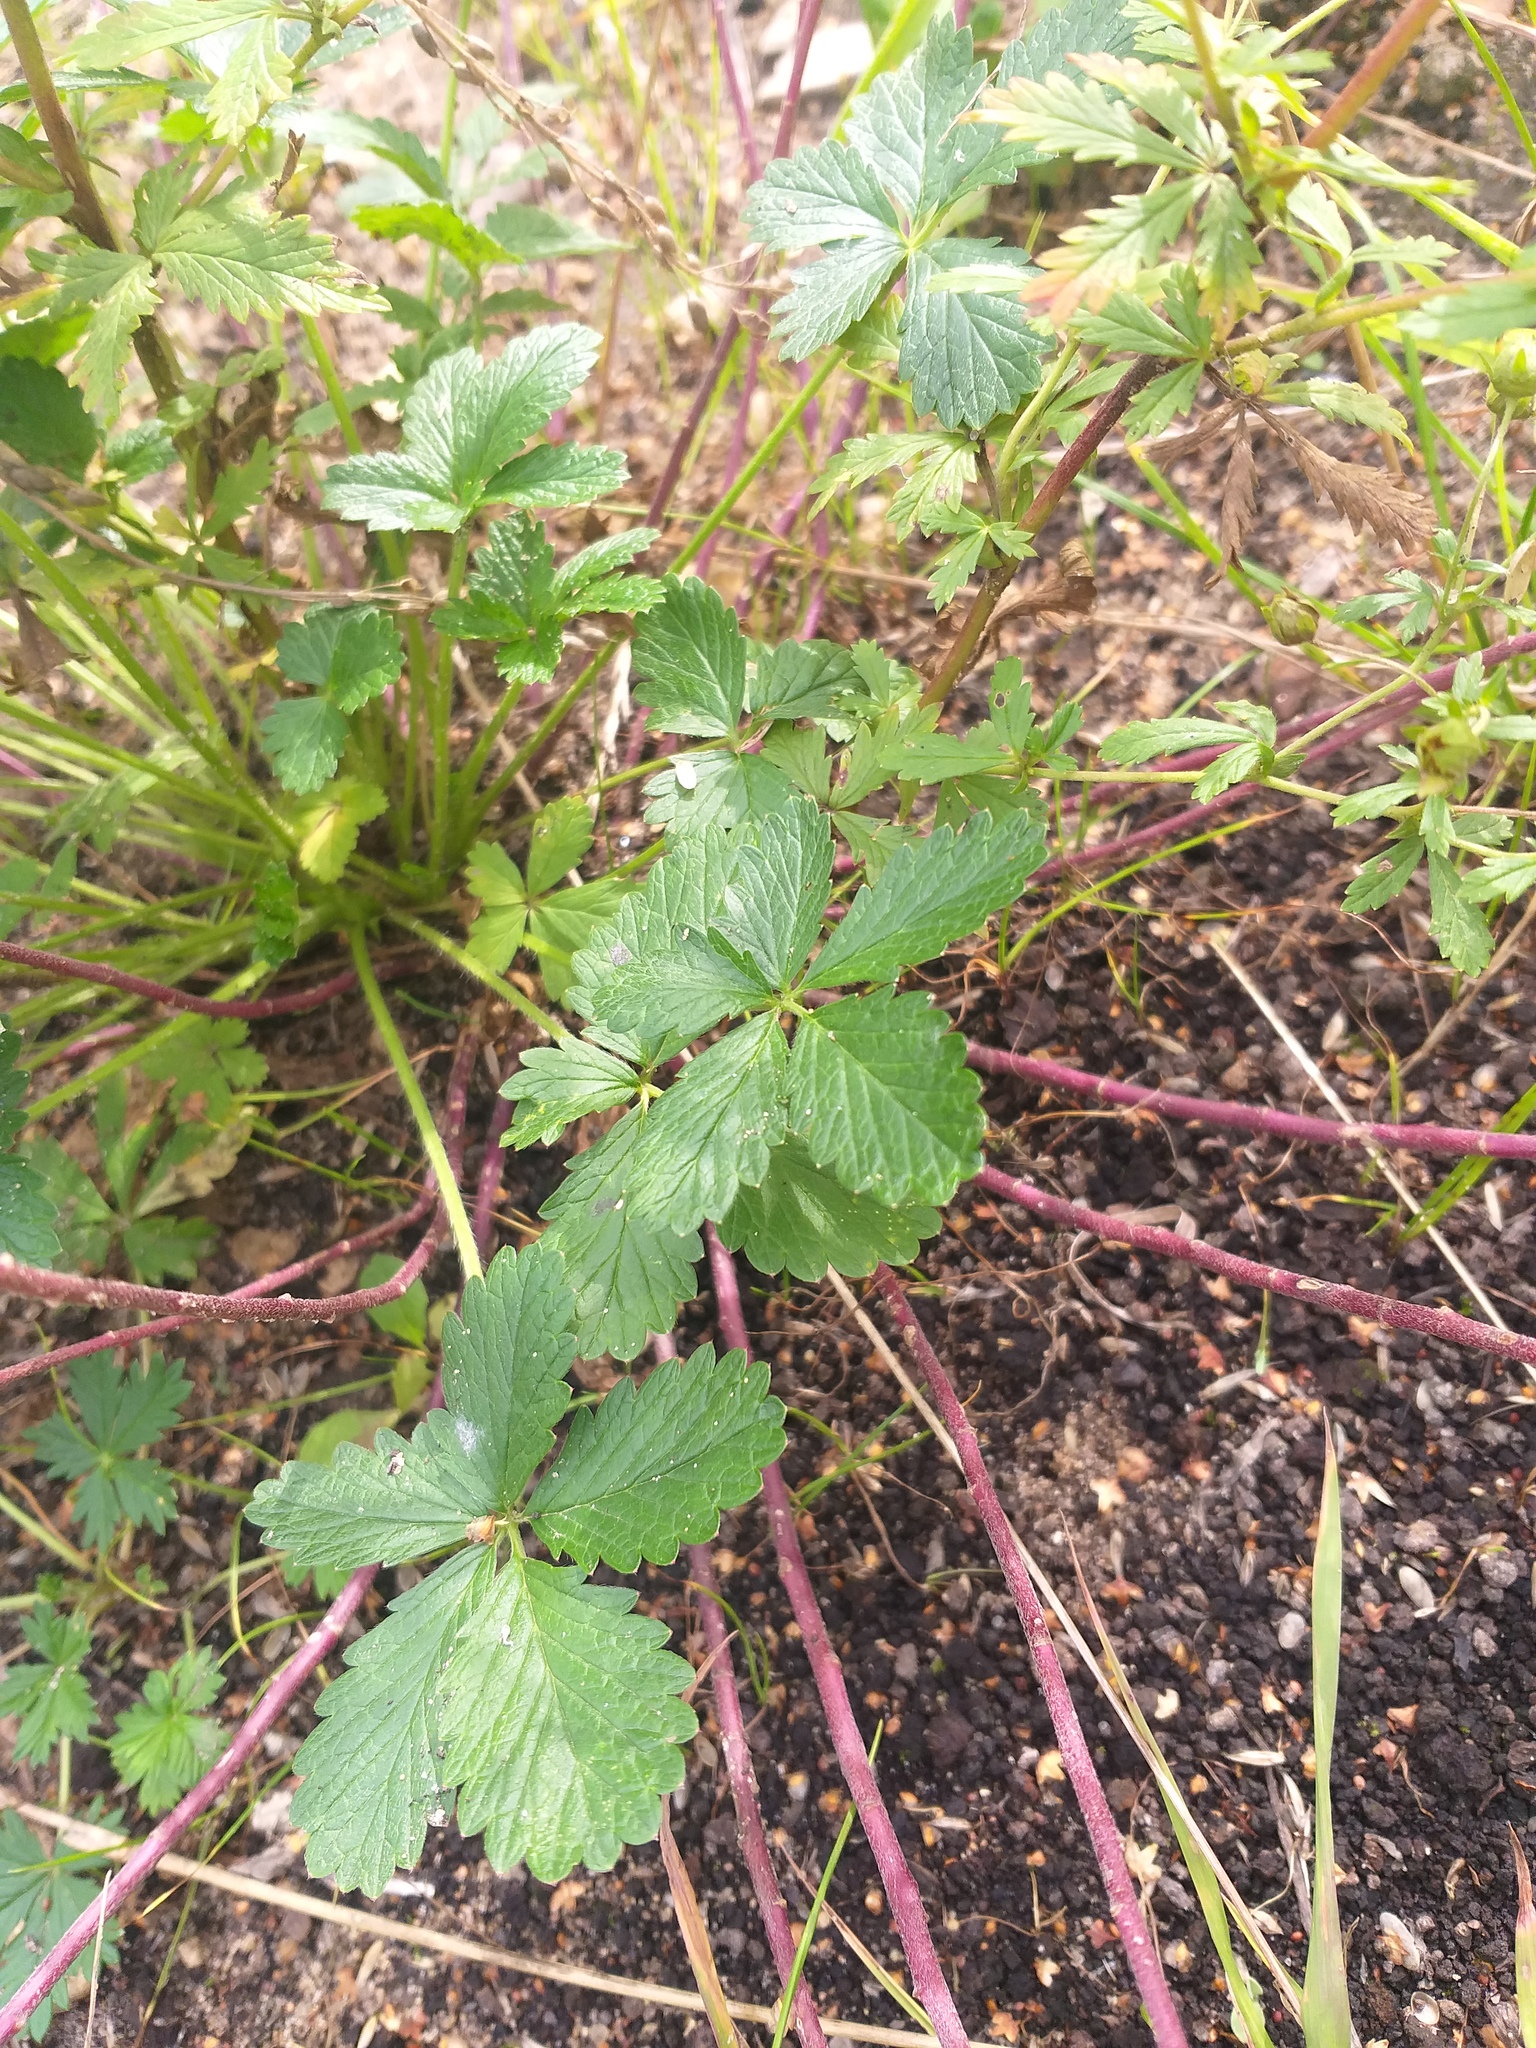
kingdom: Plantae
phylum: Tracheophyta
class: Magnoliopsida
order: Rosales
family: Rosaceae
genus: Potentilla
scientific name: Potentilla intermedia
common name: Downy cinquefoil
